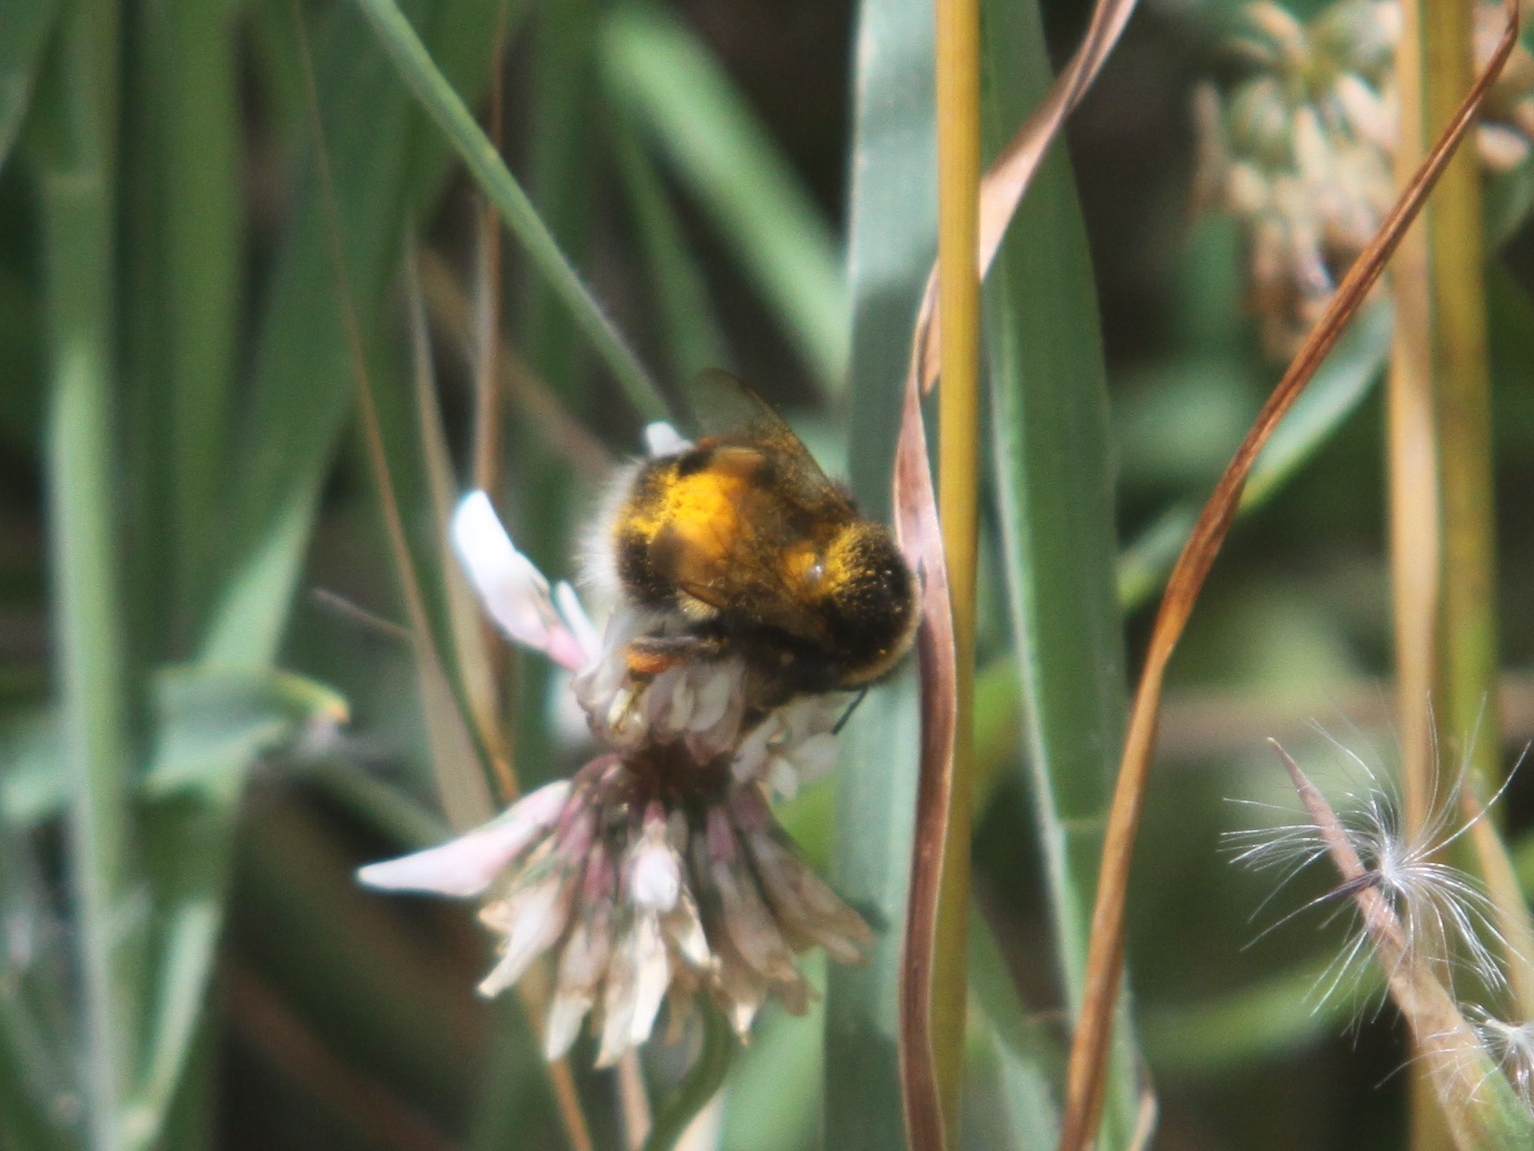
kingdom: Animalia
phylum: Arthropoda
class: Insecta
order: Hymenoptera
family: Apidae
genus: Bombus
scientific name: Bombus terrestris
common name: Buff-tailed bumblebee
